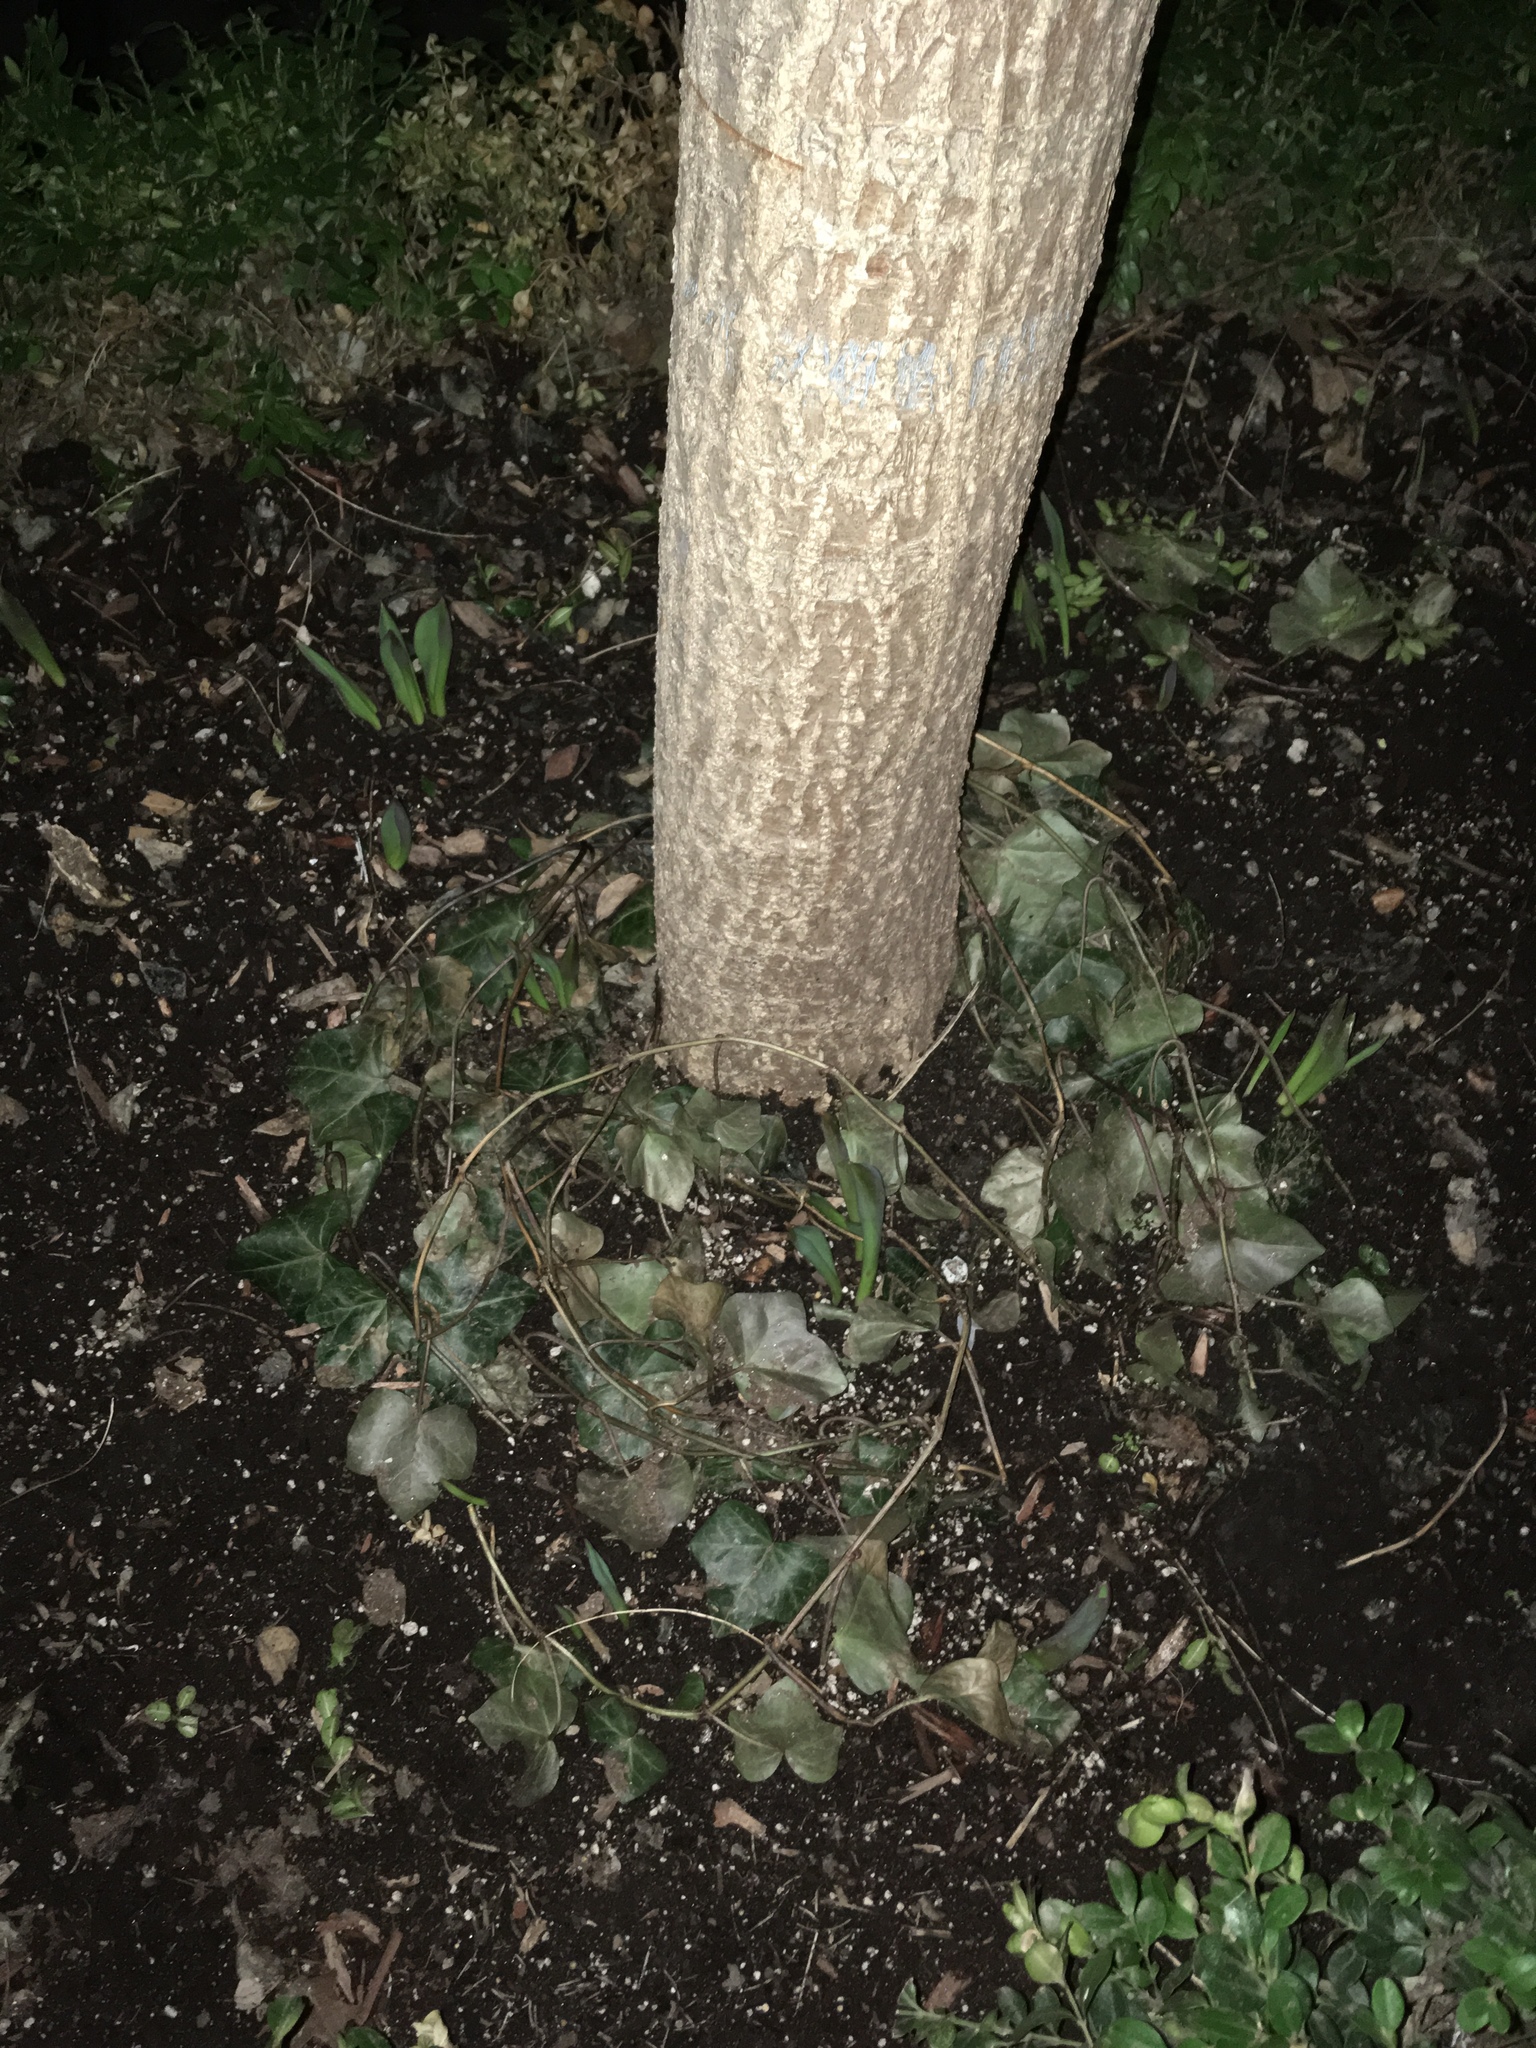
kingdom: Plantae
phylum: Tracheophyta
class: Magnoliopsida
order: Apiales
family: Araliaceae
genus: Hedera
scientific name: Hedera helix
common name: Ivy
